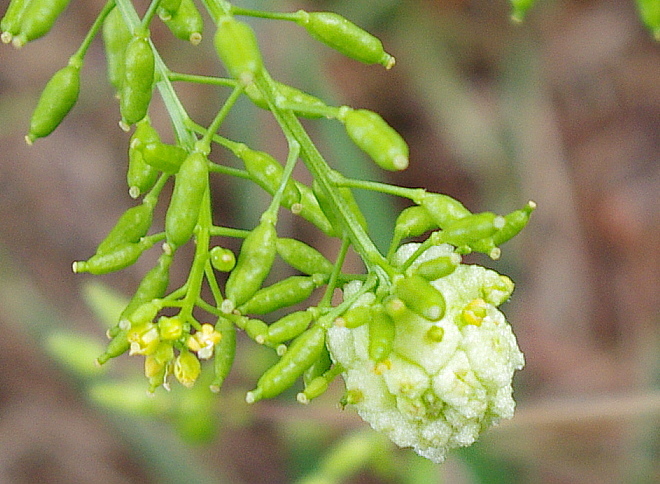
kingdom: Animalia
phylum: Arthropoda
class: Insecta
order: Diptera
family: Cecidomyiidae
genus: Dasineura
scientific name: Dasineura sisymbrii
